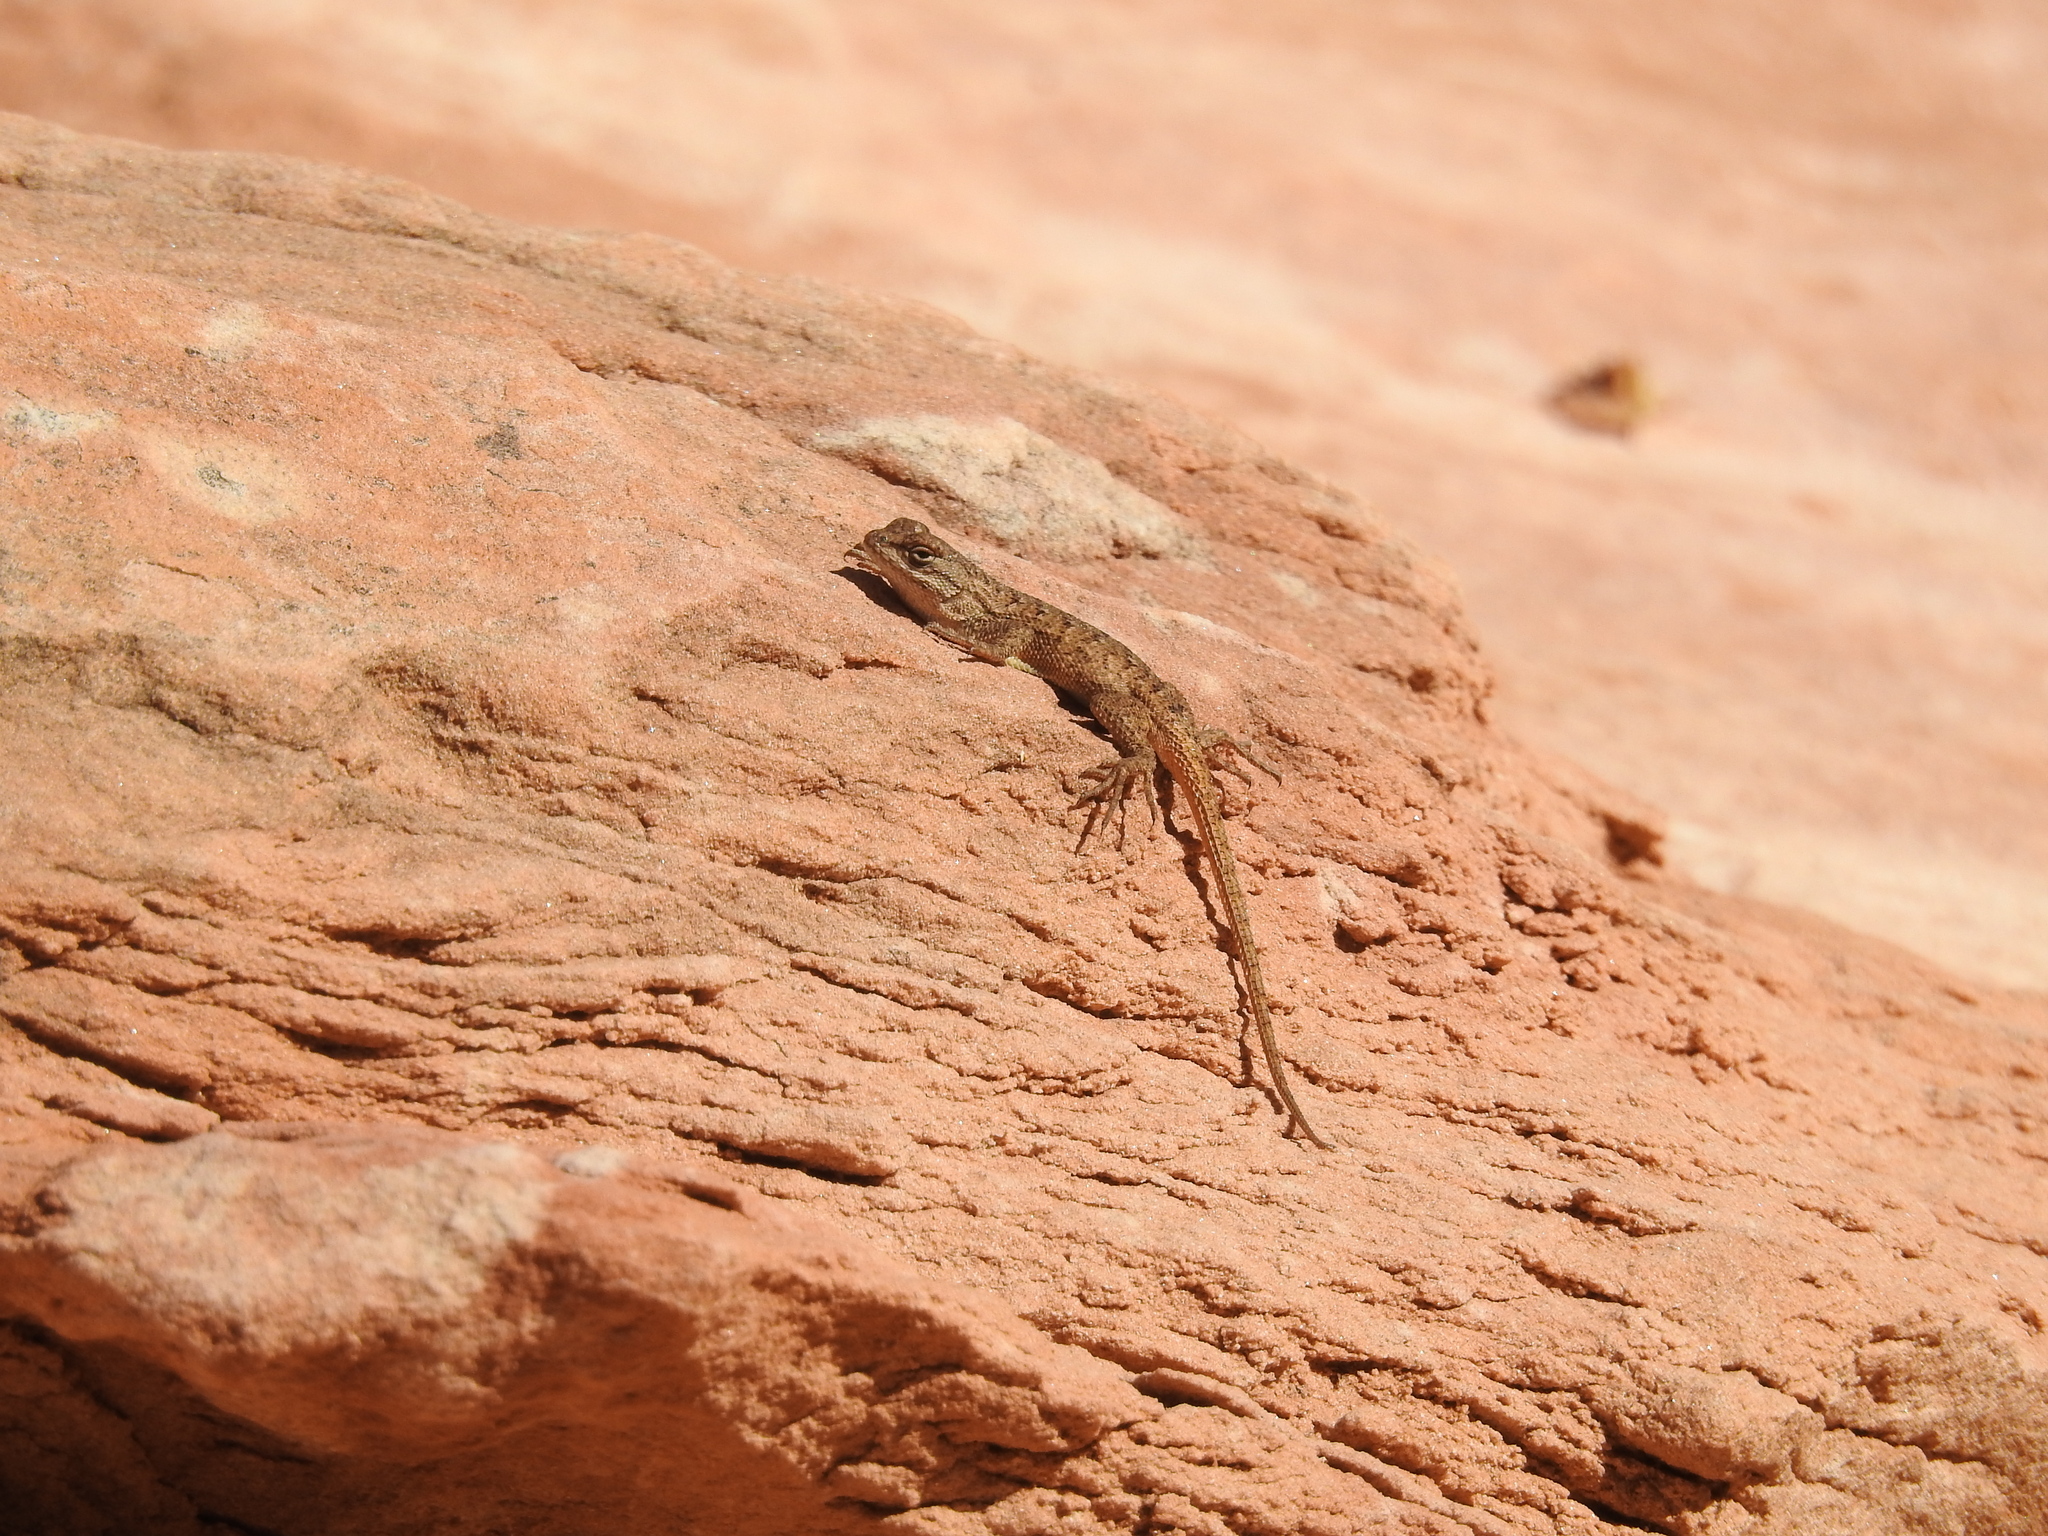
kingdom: Animalia
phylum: Chordata
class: Squamata
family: Phrynosomatidae
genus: Sceloporus
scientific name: Sceloporus tristichus
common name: Plateau fence lizard
